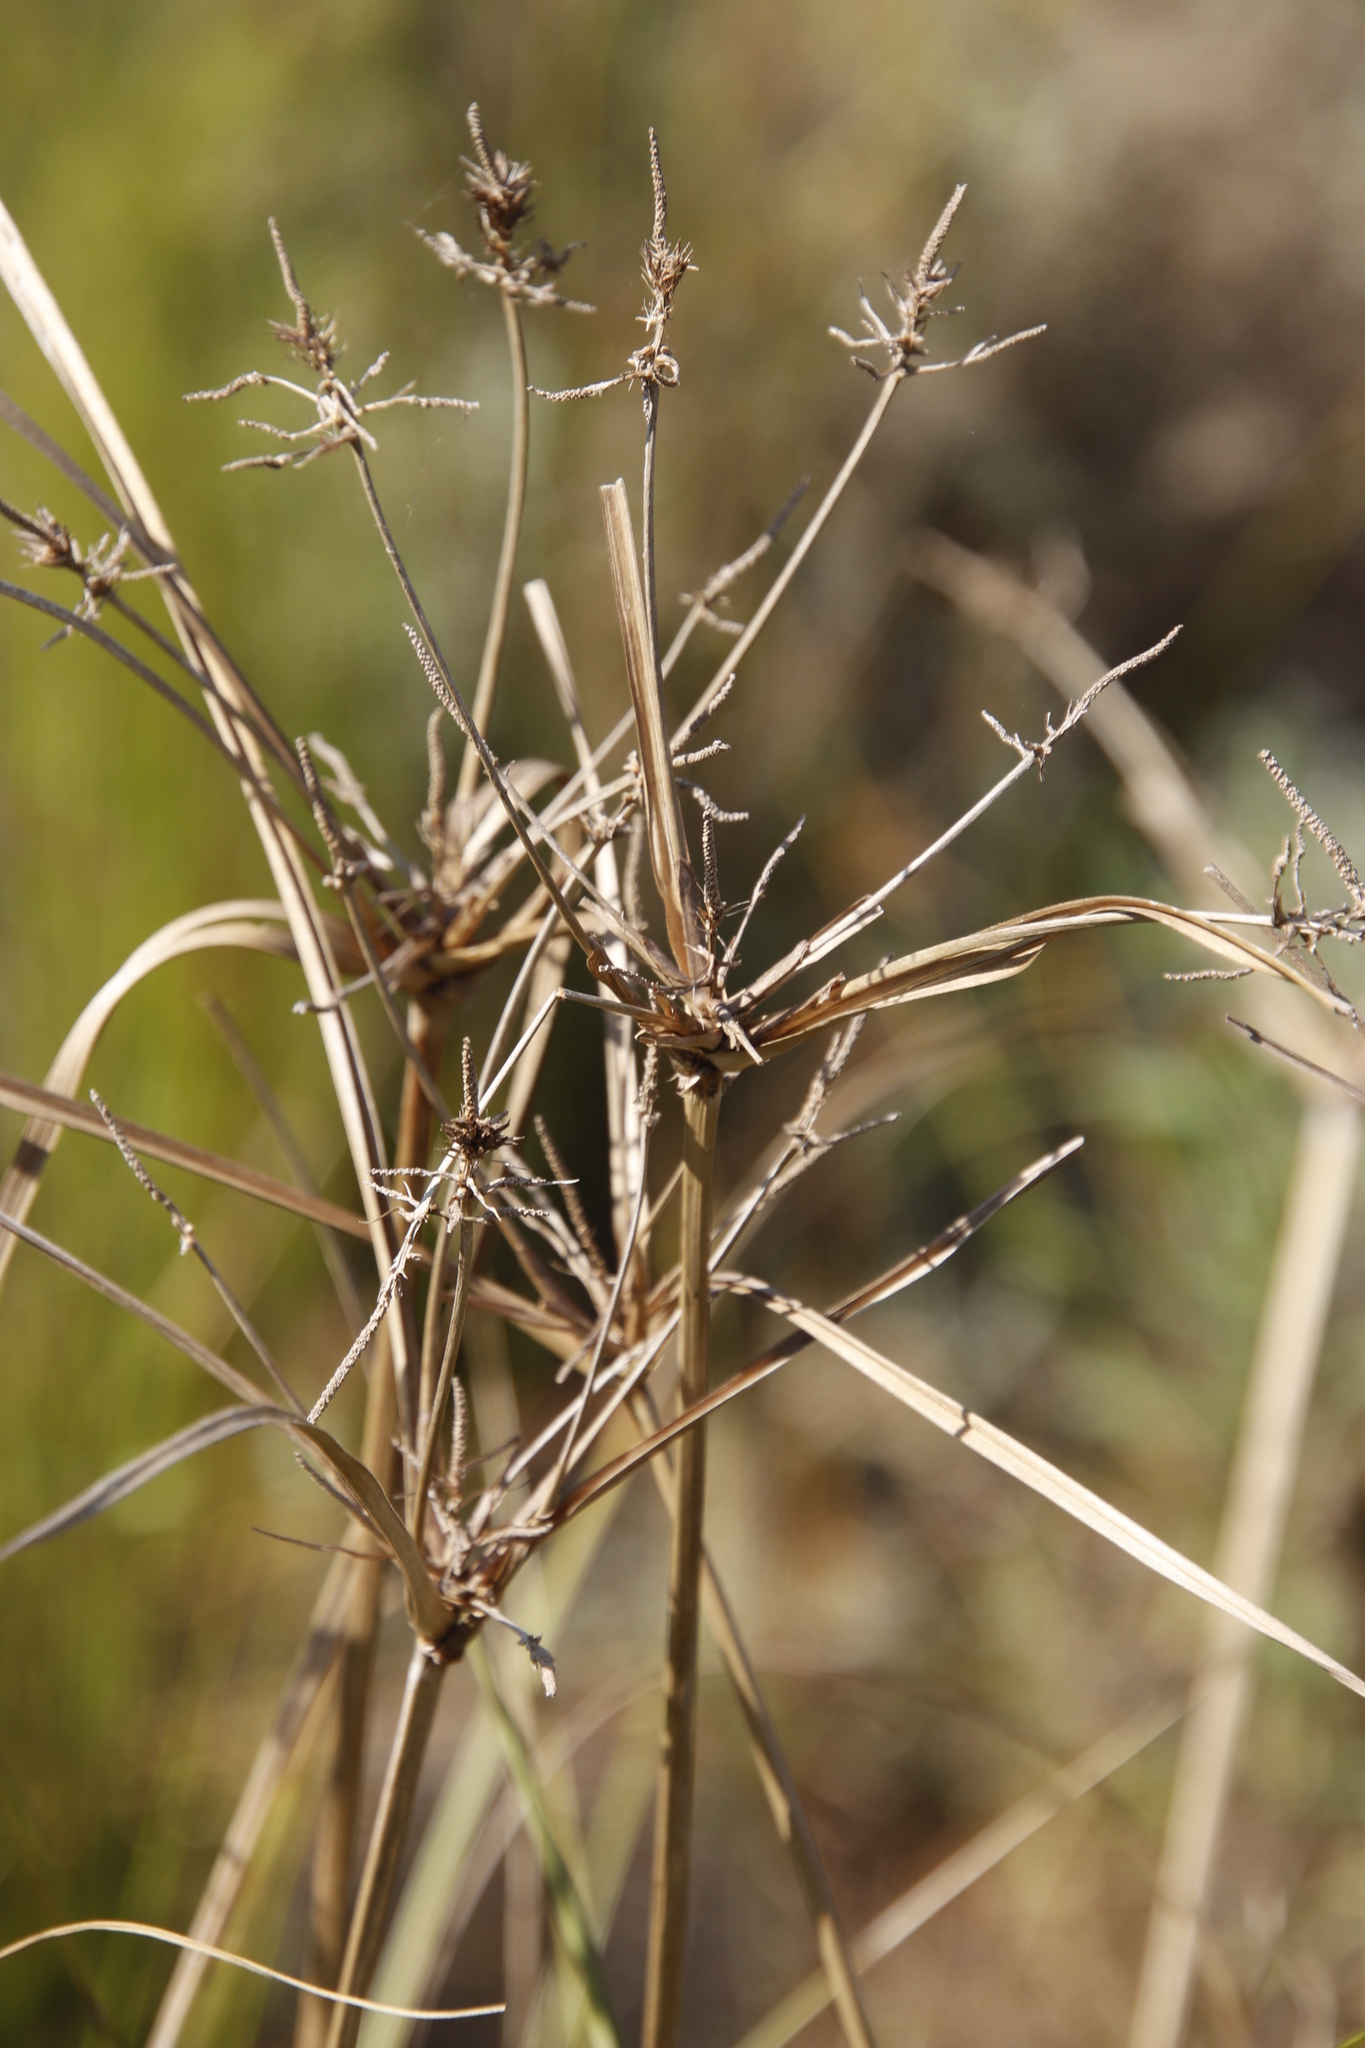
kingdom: Plantae
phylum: Tracheophyta
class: Liliopsida
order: Poales
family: Cyperaceae
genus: Cyperus
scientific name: Cyperus thunbergii
